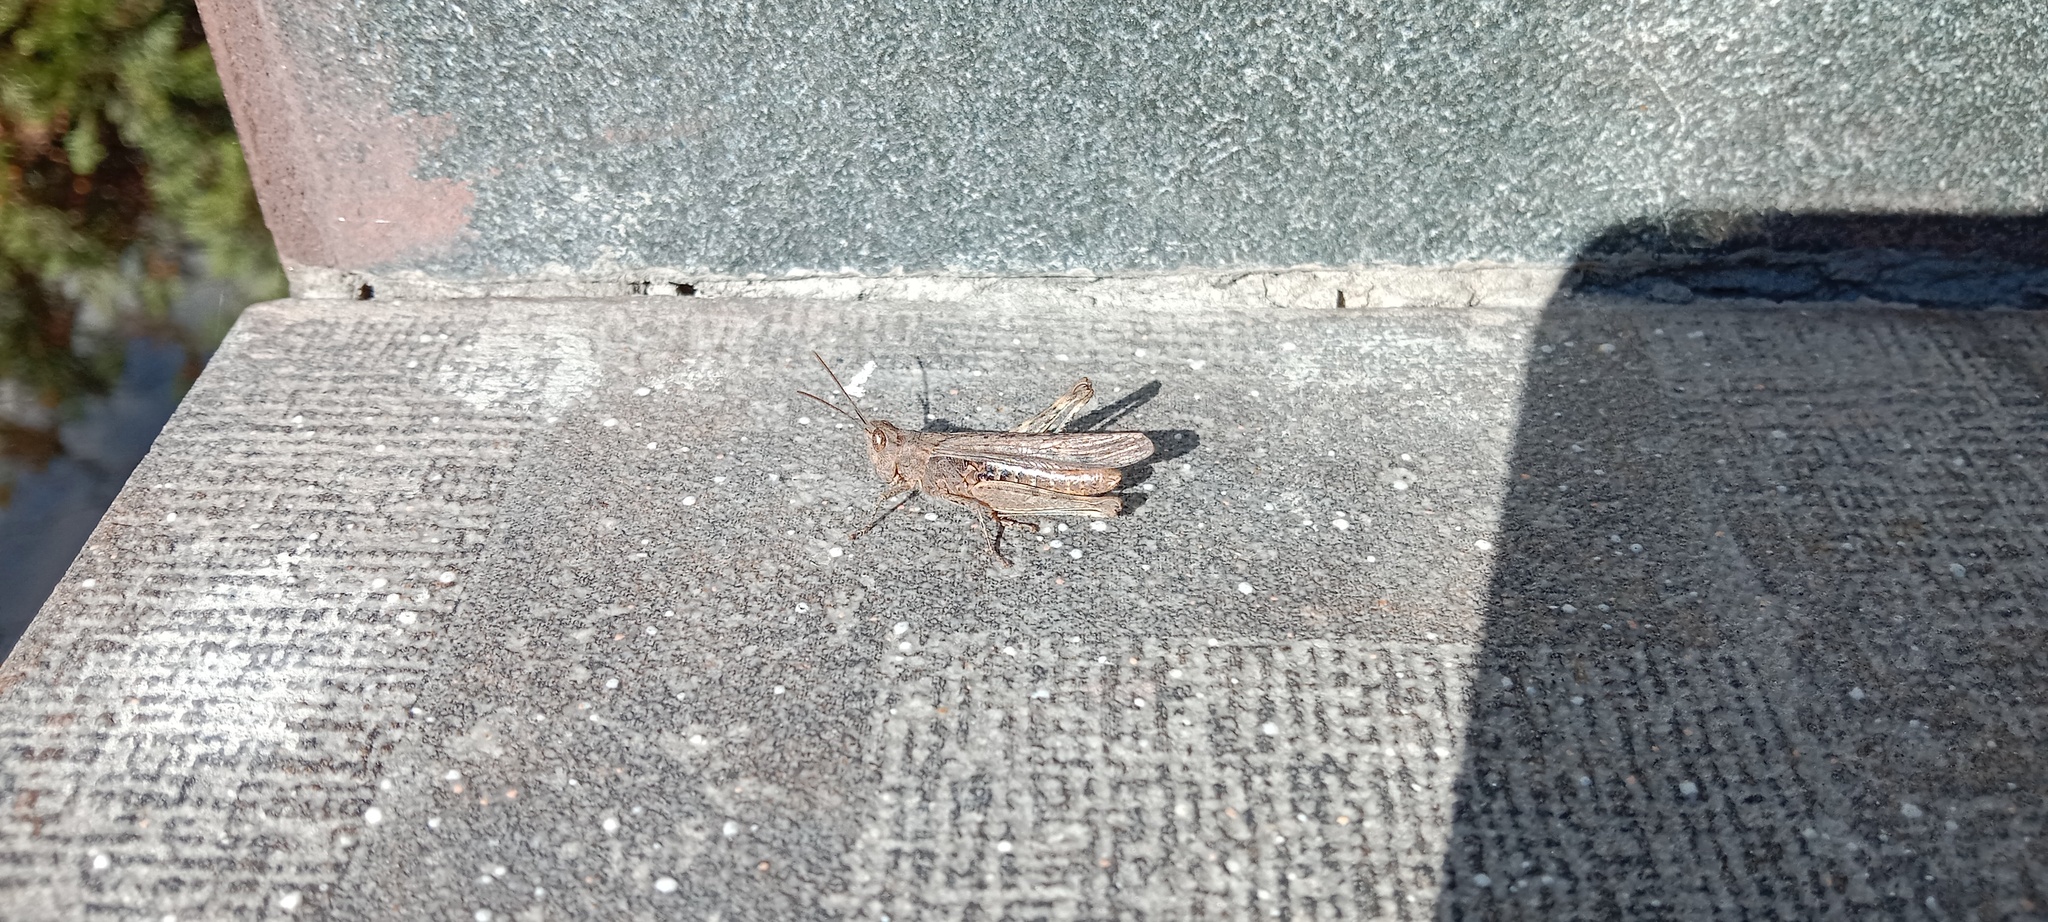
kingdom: Animalia
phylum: Arthropoda
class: Insecta
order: Orthoptera
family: Acrididae
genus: Chorthippus
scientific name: Chorthippus brunneus
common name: Field grasshopper
